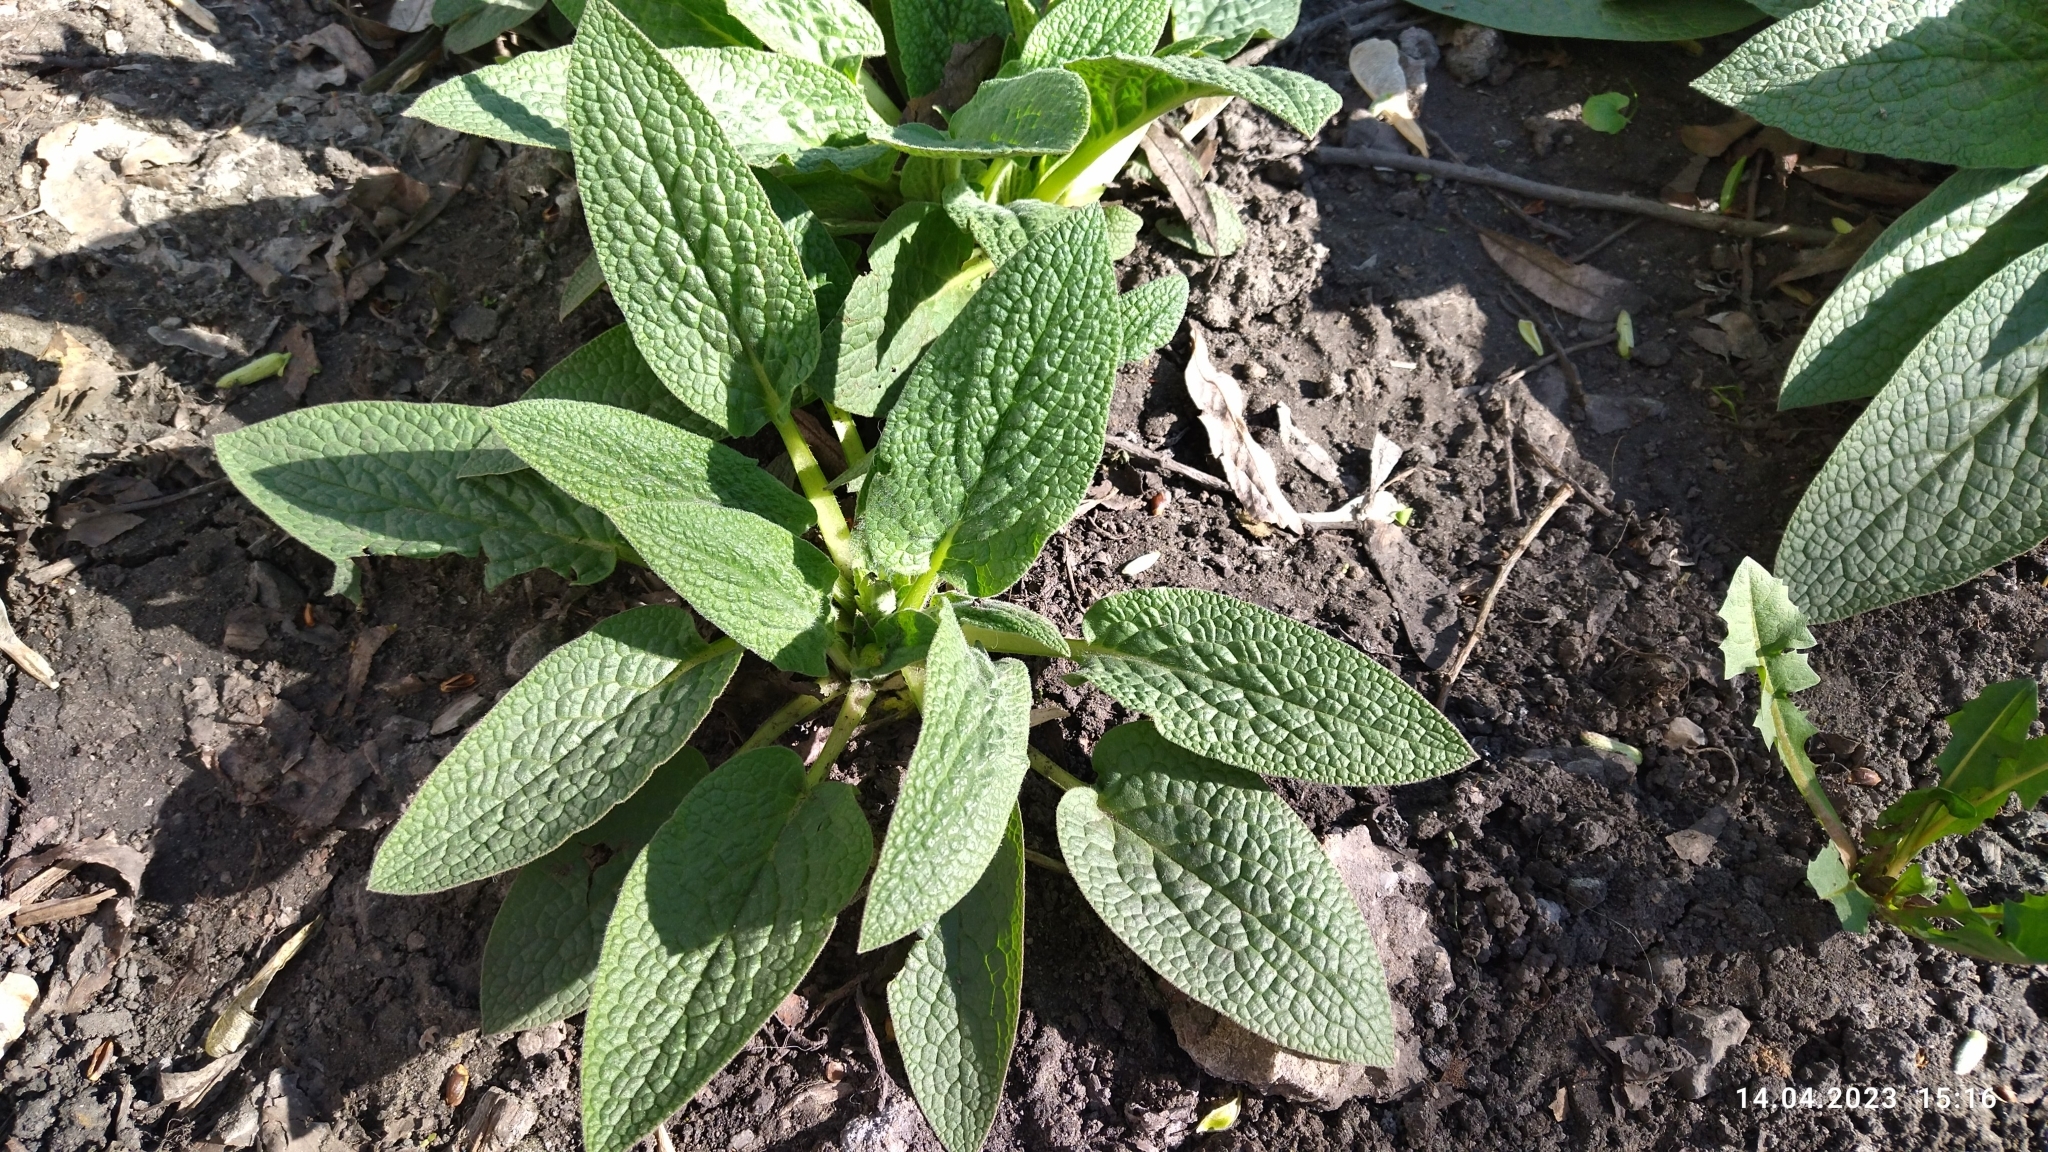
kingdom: Plantae
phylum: Tracheophyta
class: Magnoliopsida
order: Boraginales
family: Boraginaceae
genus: Symphytum
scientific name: Symphytum caucasicum
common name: Caucasian comfrey
